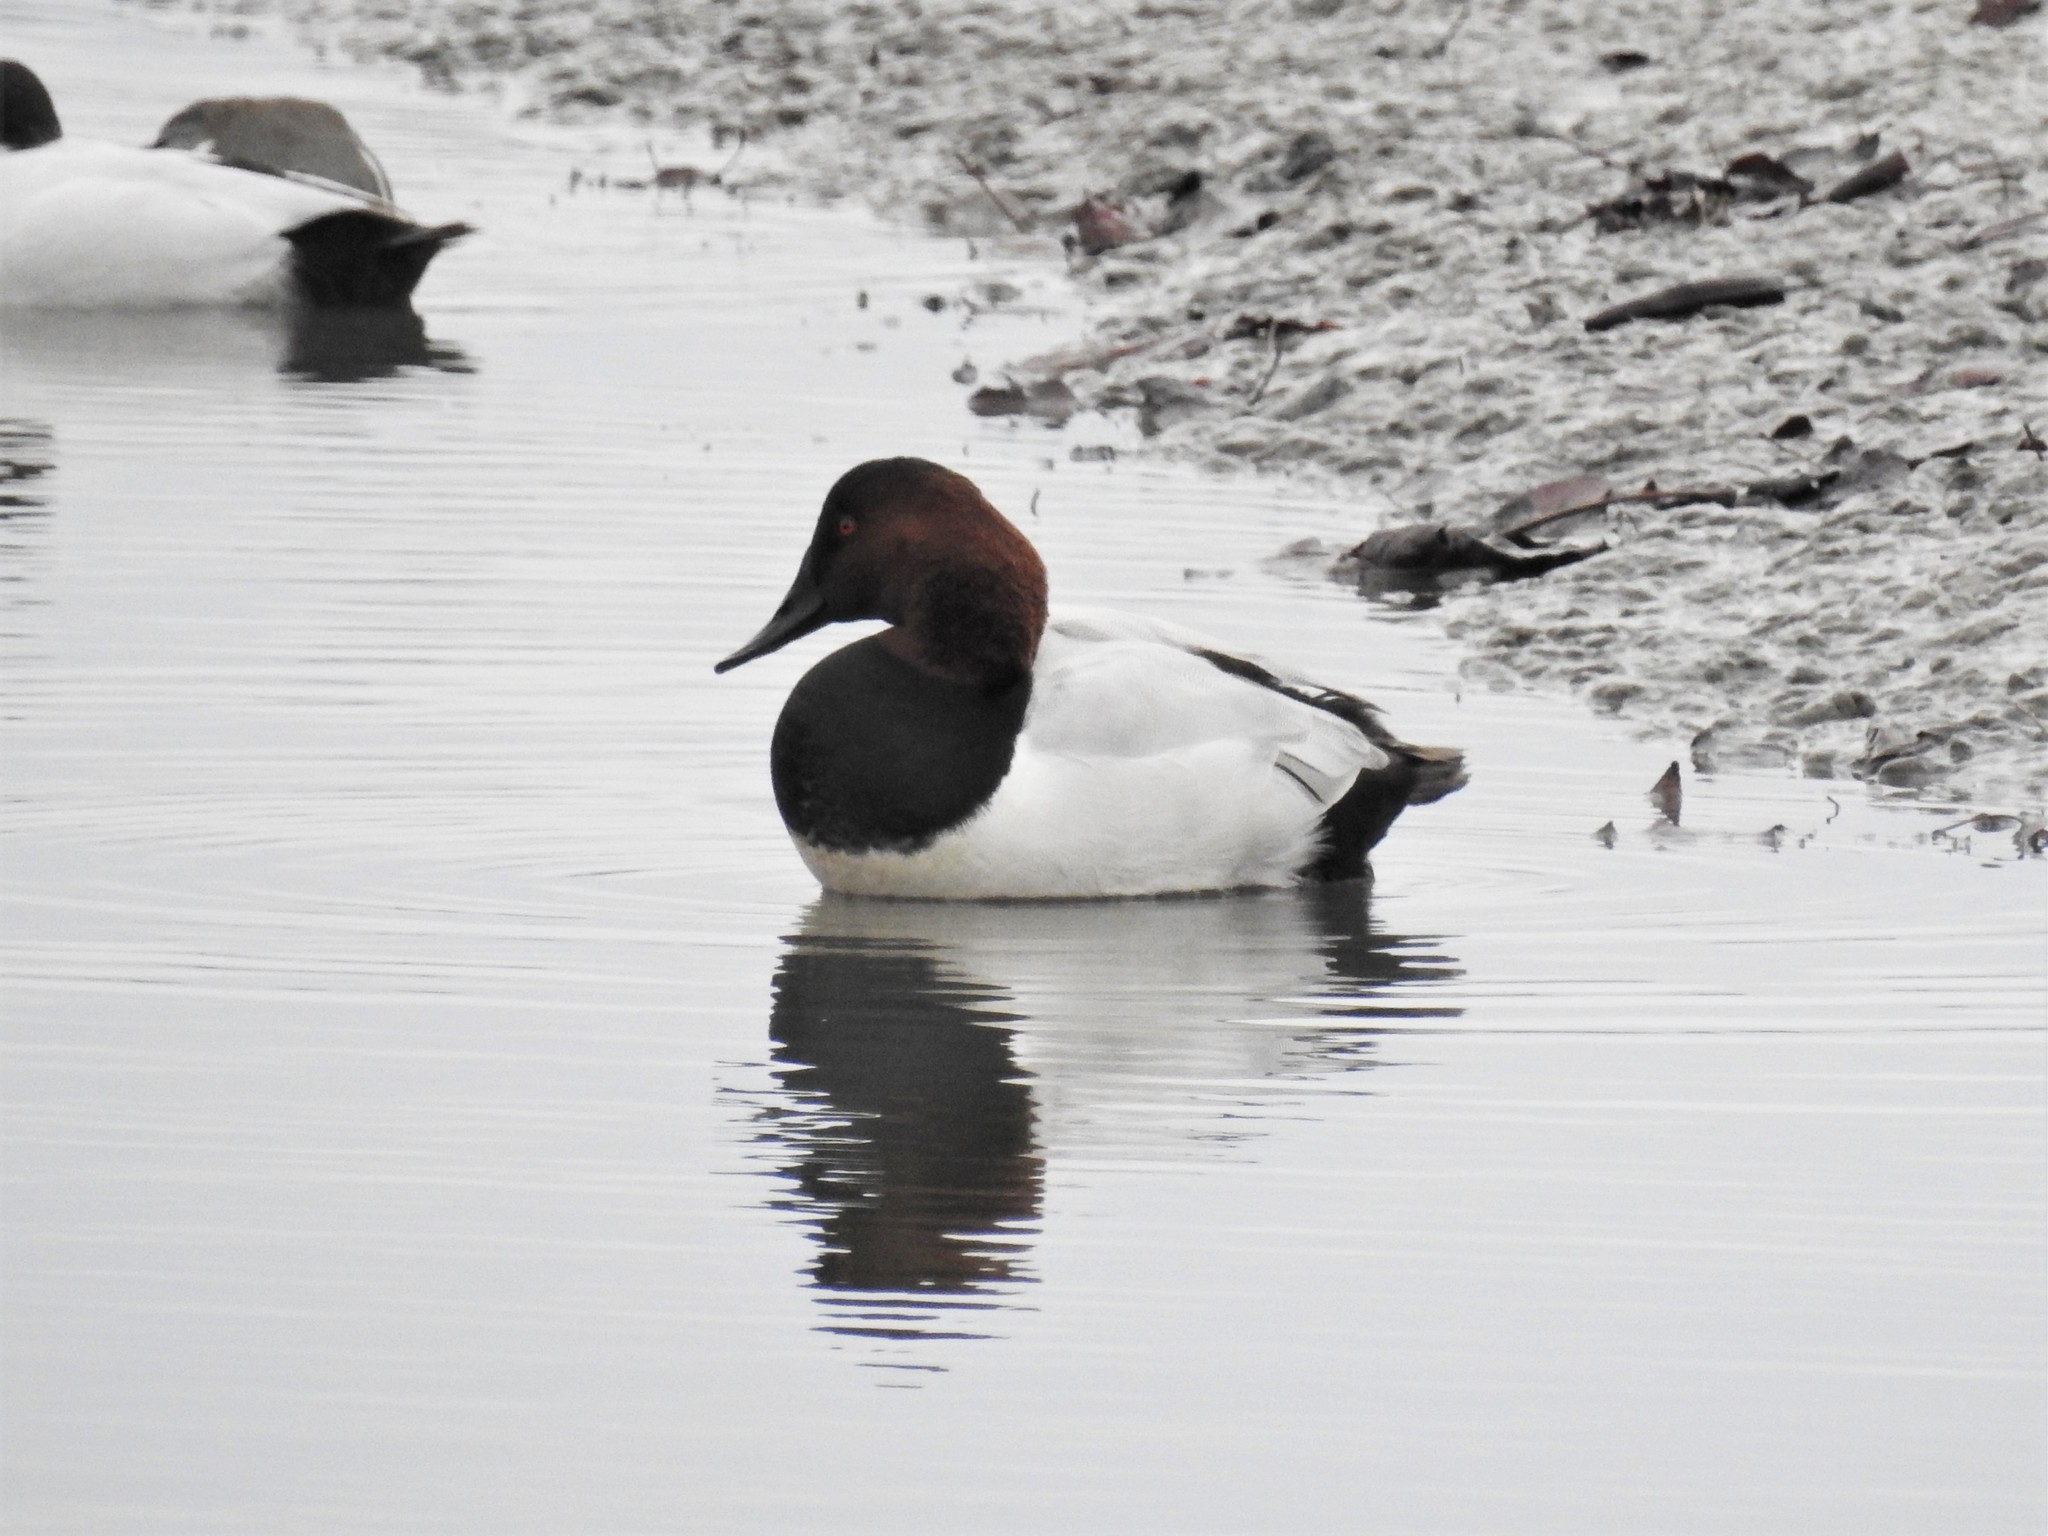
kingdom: Animalia
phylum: Chordata
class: Aves
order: Anseriformes
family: Anatidae
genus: Aythya
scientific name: Aythya valisineria
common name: Canvasback
